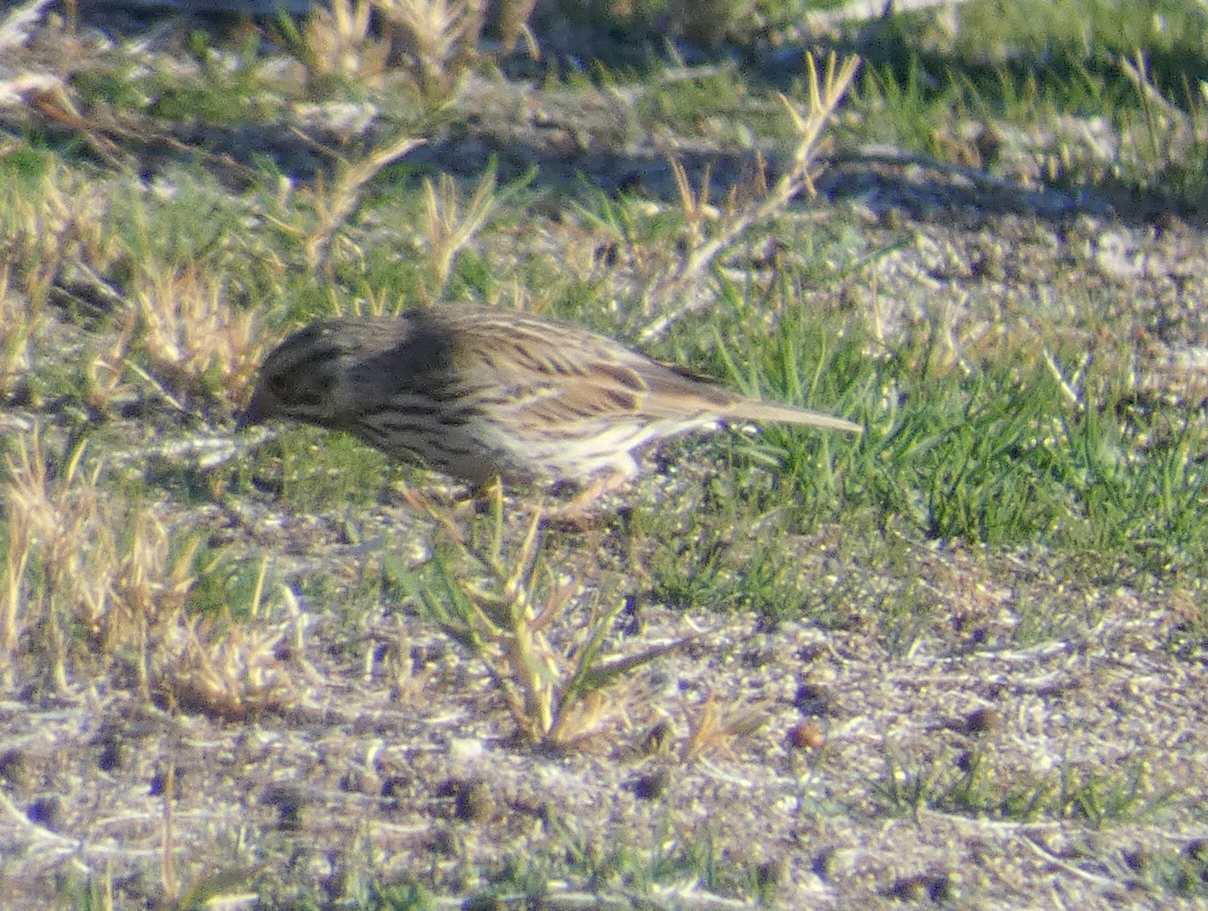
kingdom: Animalia
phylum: Chordata
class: Aves
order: Passeriformes
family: Passerellidae
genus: Passerculus
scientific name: Passerculus sandwichensis
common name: Savannah sparrow
